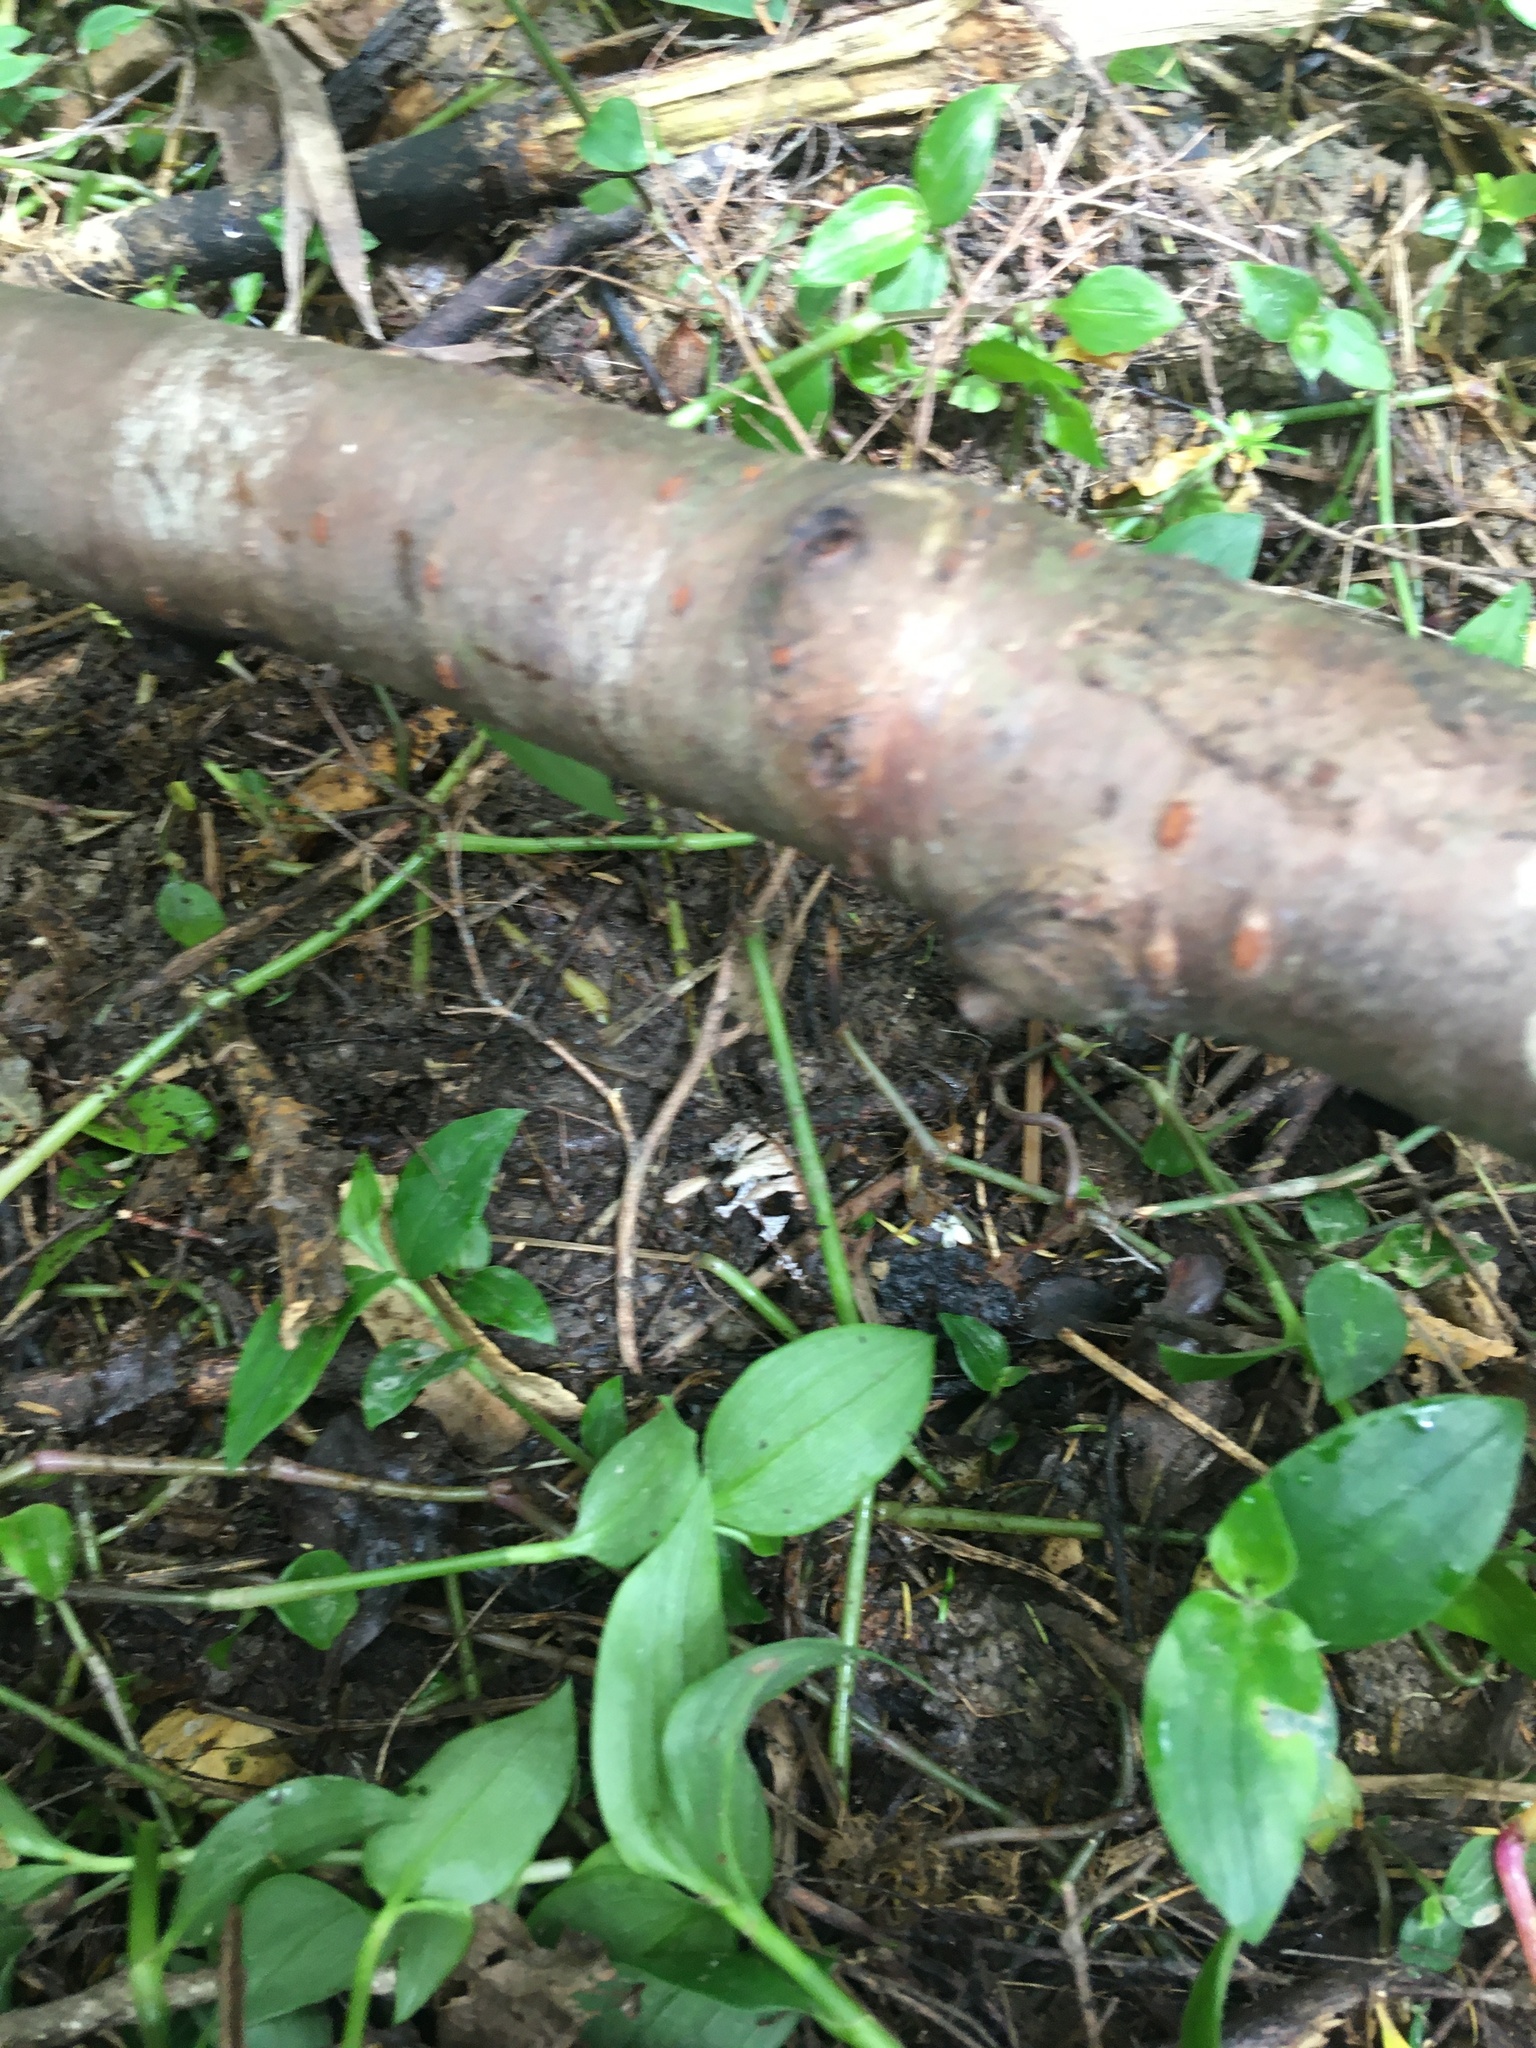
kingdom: Plantae
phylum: Tracheophyta
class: Liliopsida
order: Commelinales
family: Commelinaceae
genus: Tradescantia
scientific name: Tradescantia fluminensis
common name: Wandering-jew
